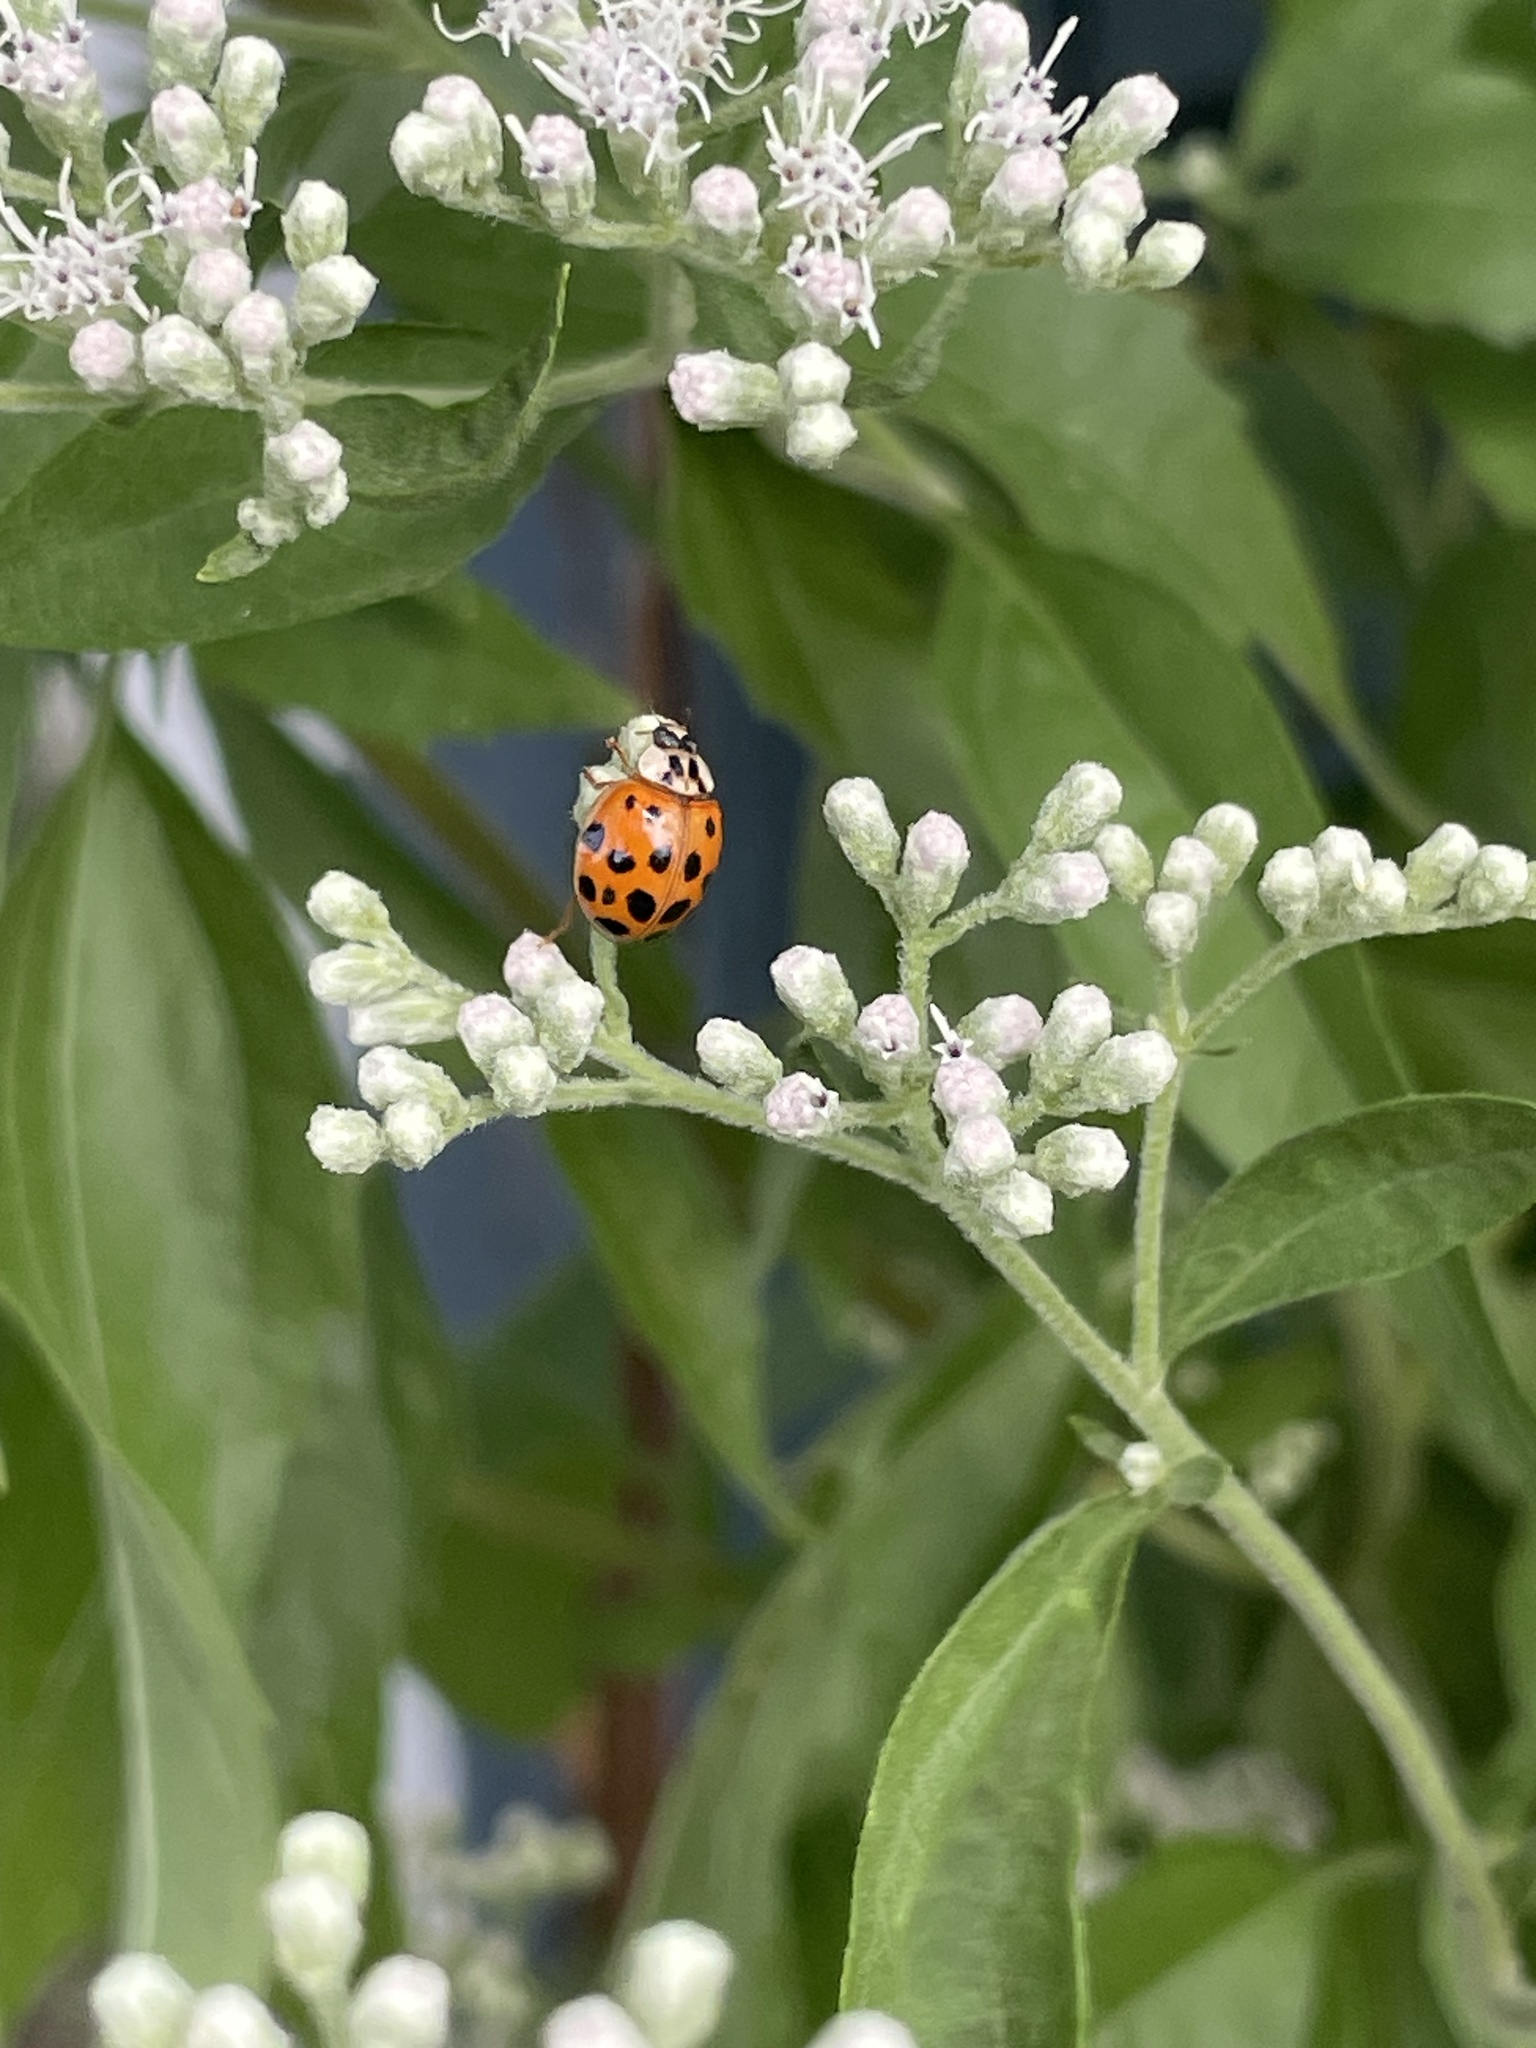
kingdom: Animalia
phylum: Arthropoda
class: Insecta
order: Coleoptera
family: Coccinellidae
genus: Harmonia
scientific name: Harmonia axyridis
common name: Harlequin ladybird
